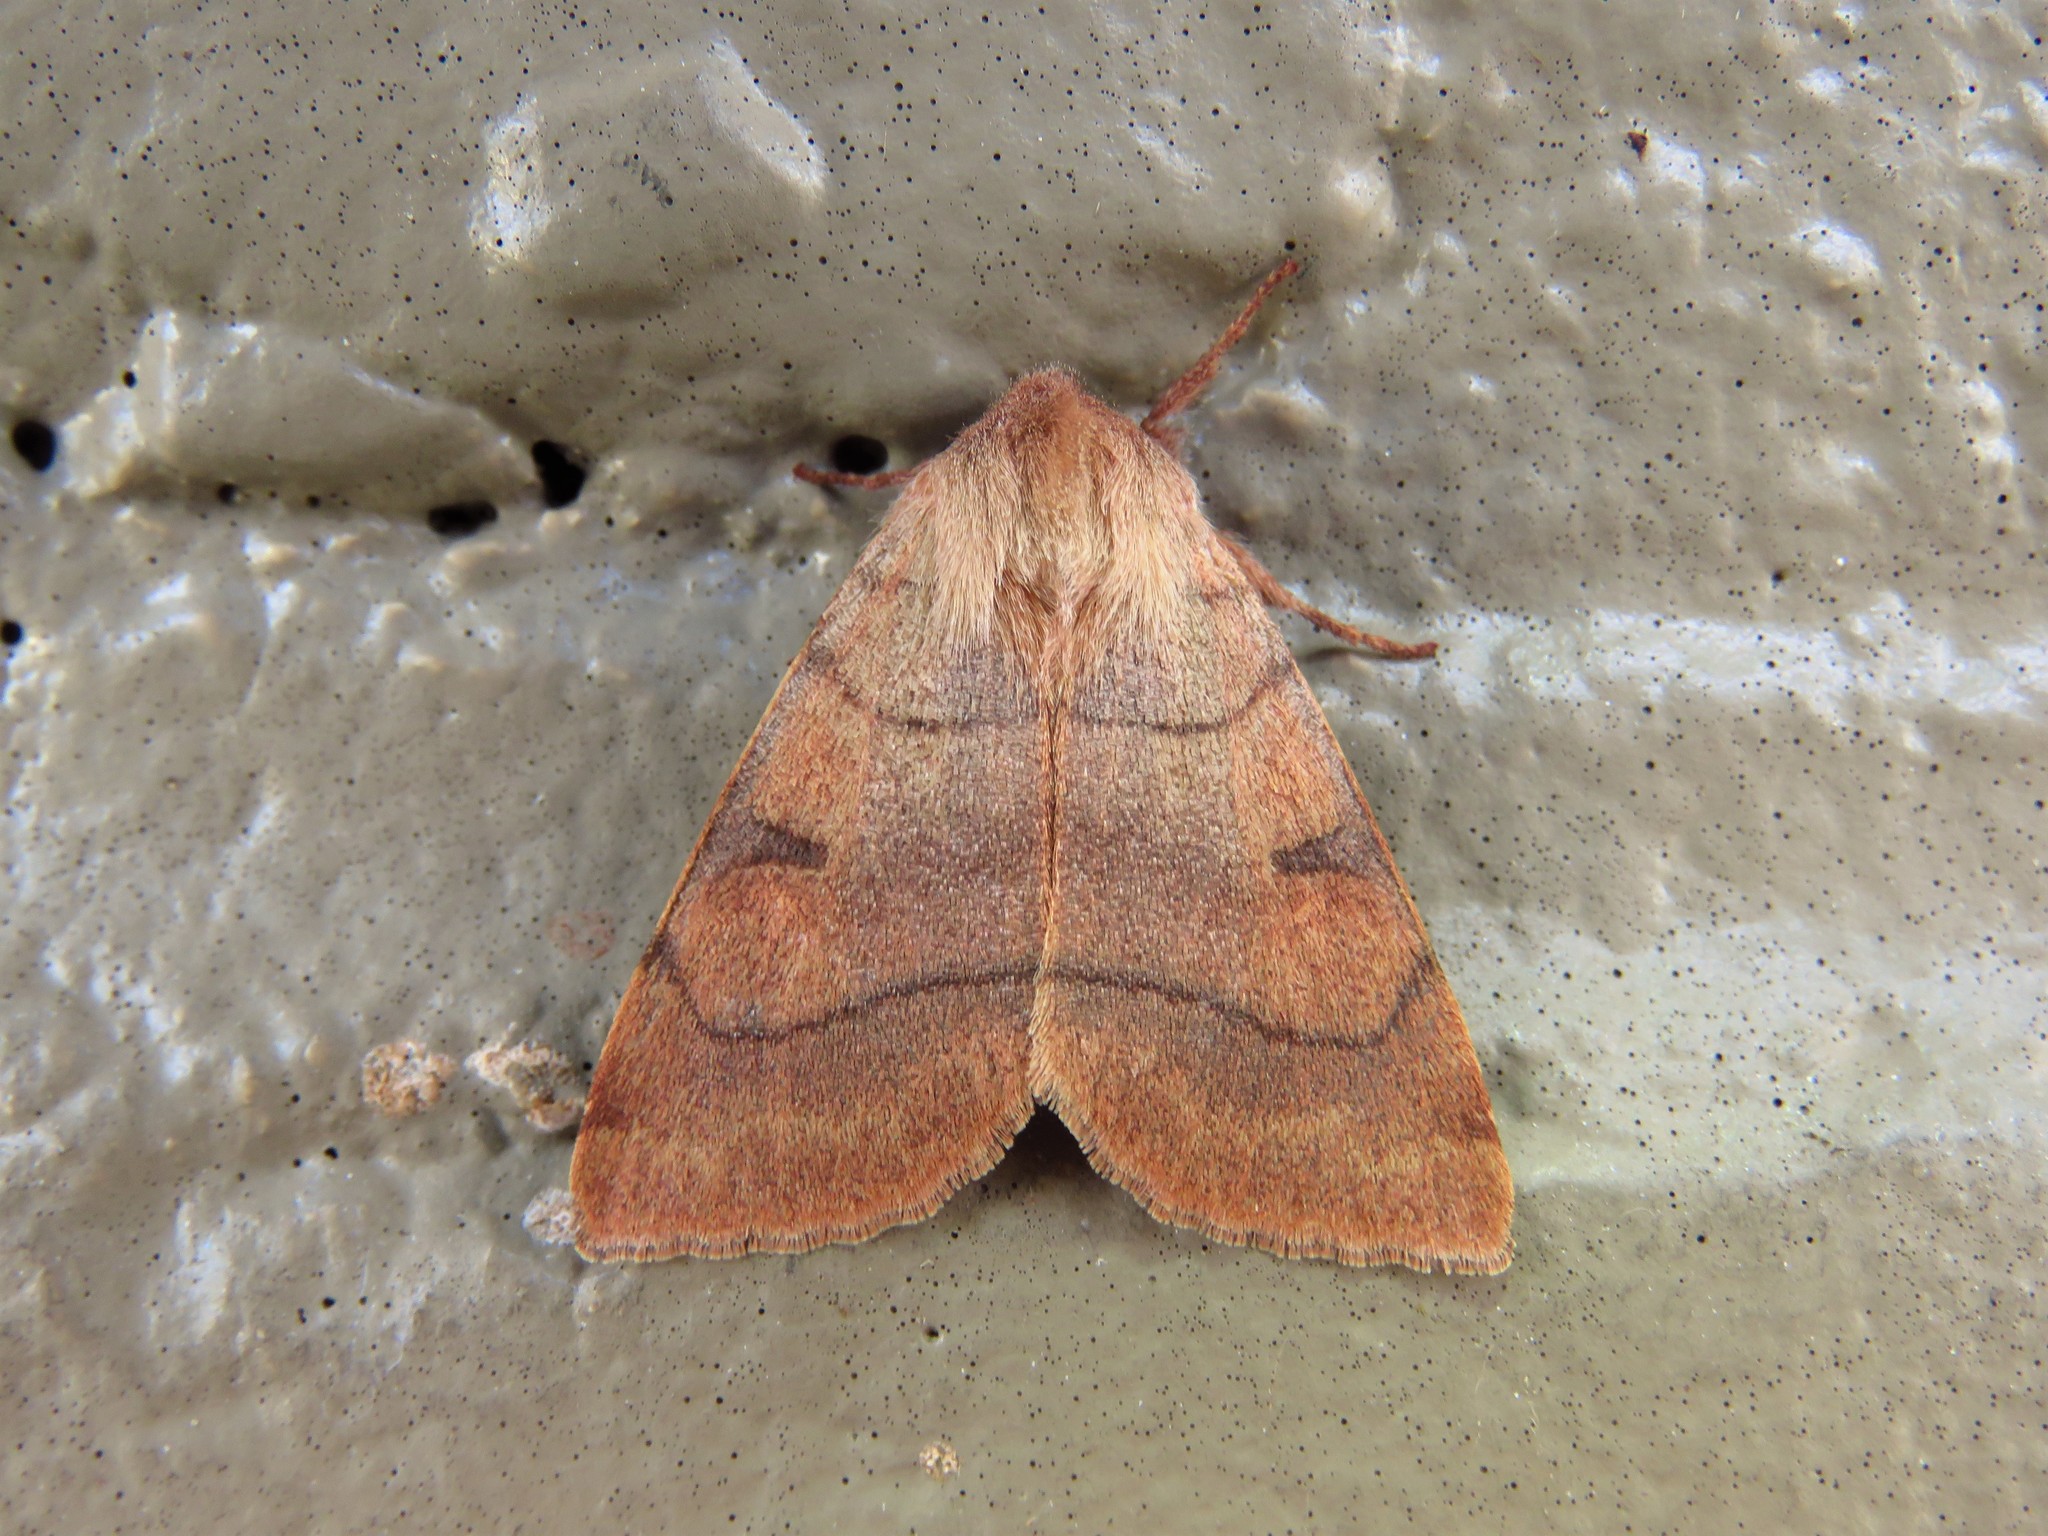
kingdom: Animalia
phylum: Arthropoda
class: Insecta
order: Lepidoptera
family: Noctuidae
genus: Choephora
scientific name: Choephora fungorum
